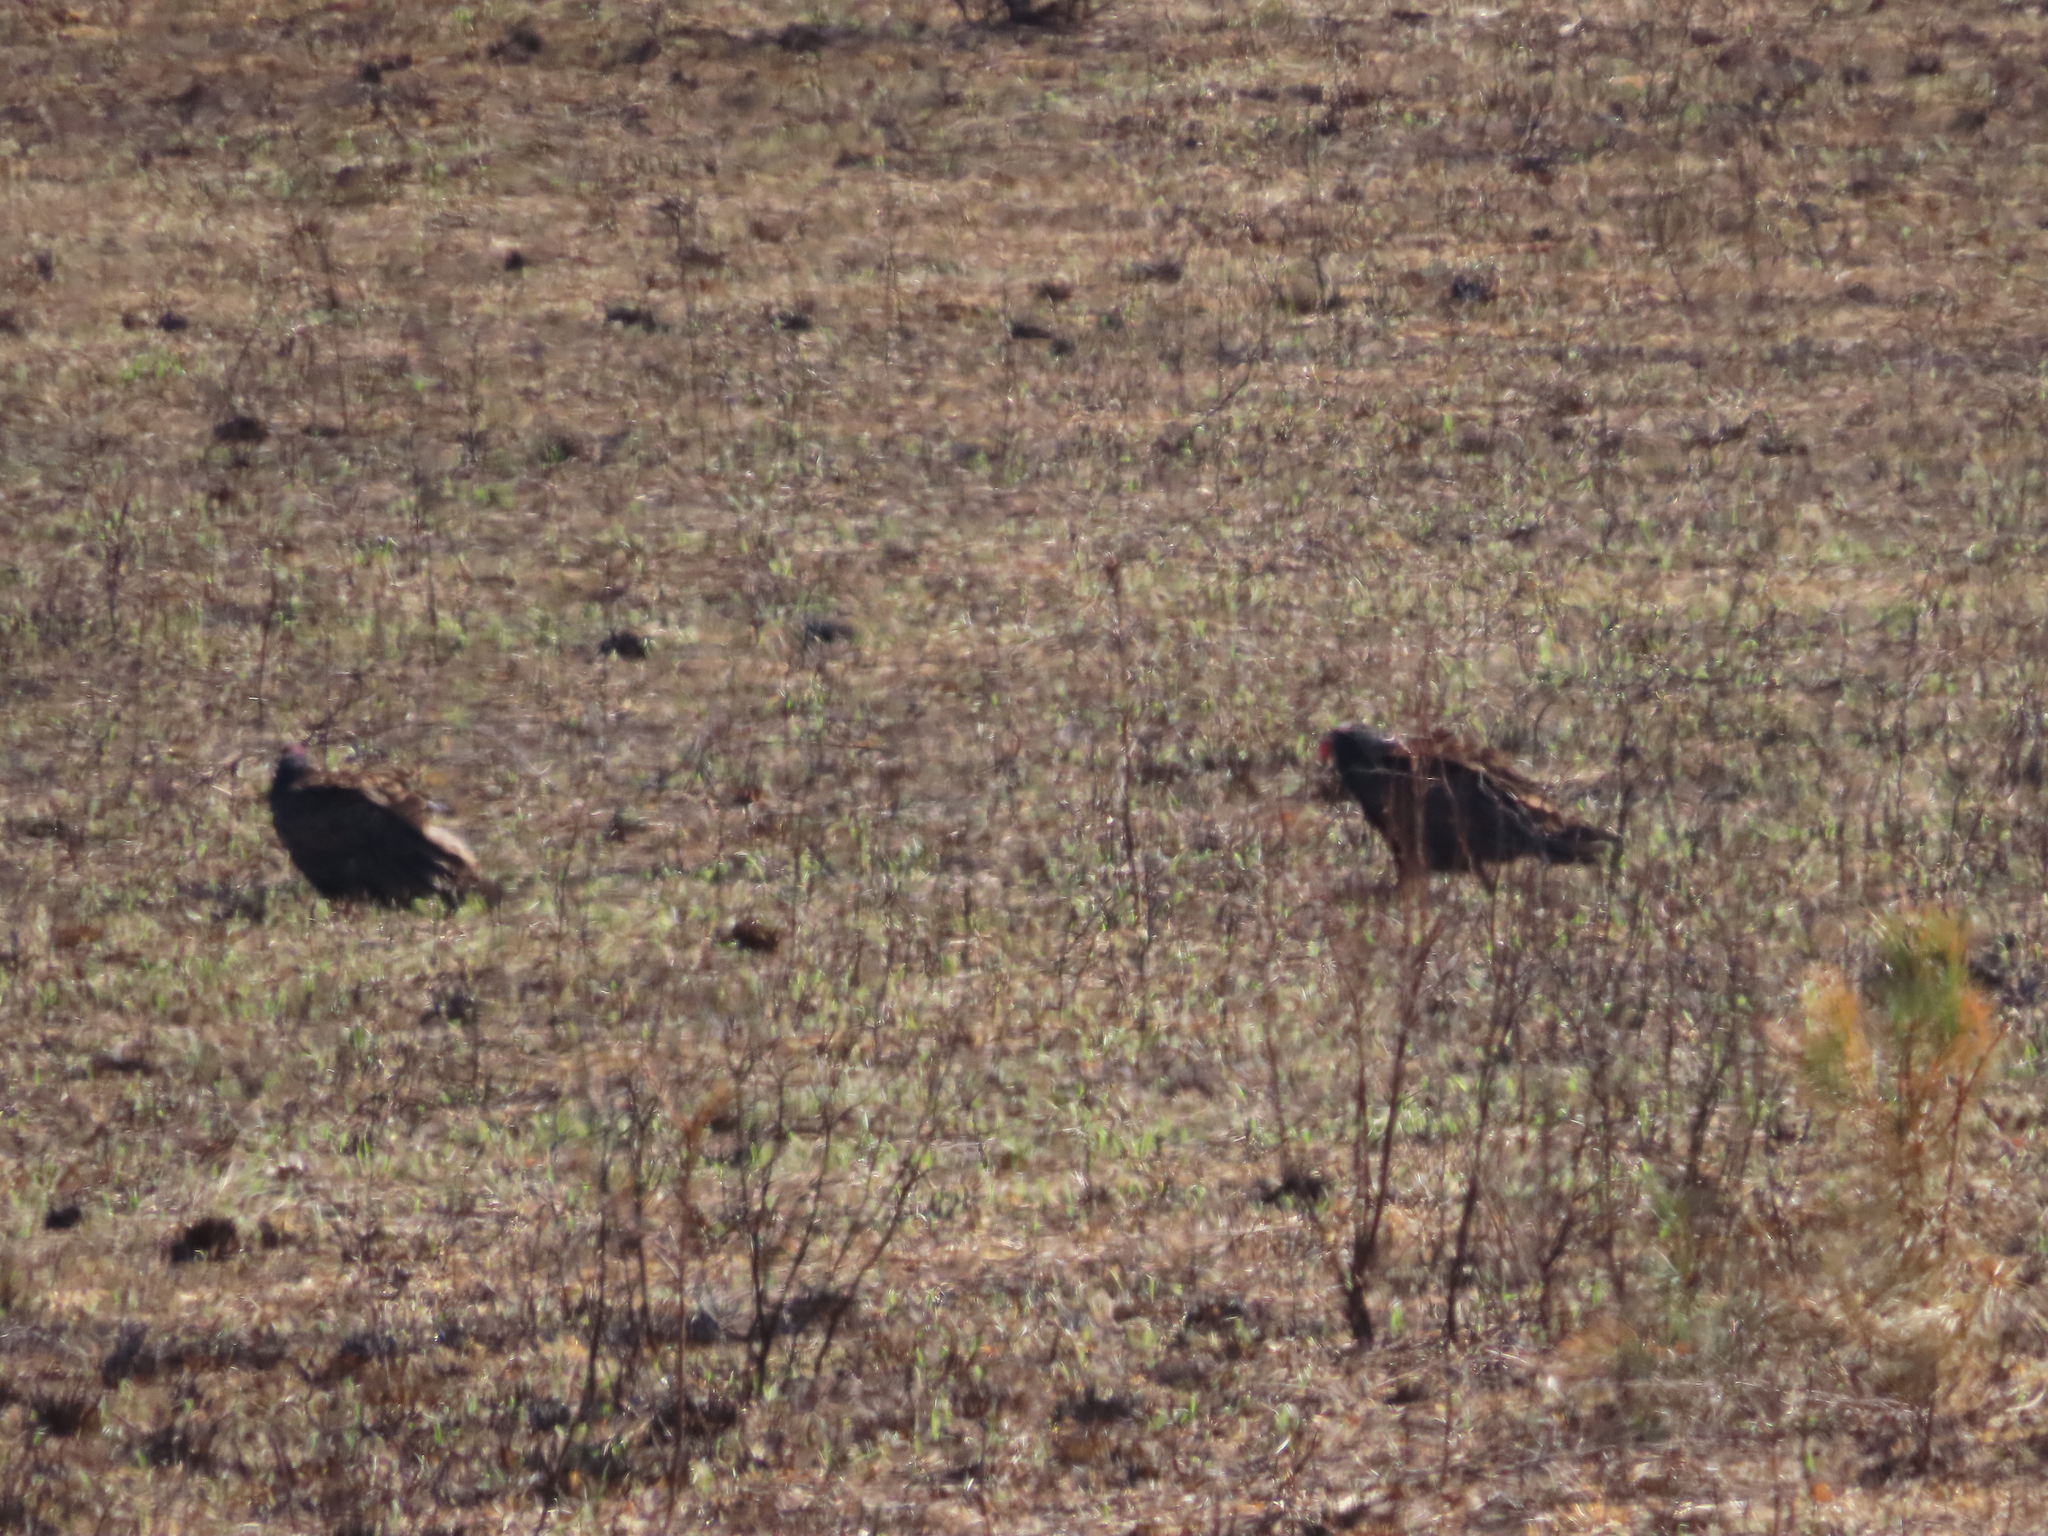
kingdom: Animalia
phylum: Chordata
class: Aves
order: Accipitriformes
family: Cathartidae
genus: Cathartes
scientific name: Cathartes aura
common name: Turkey vulture
